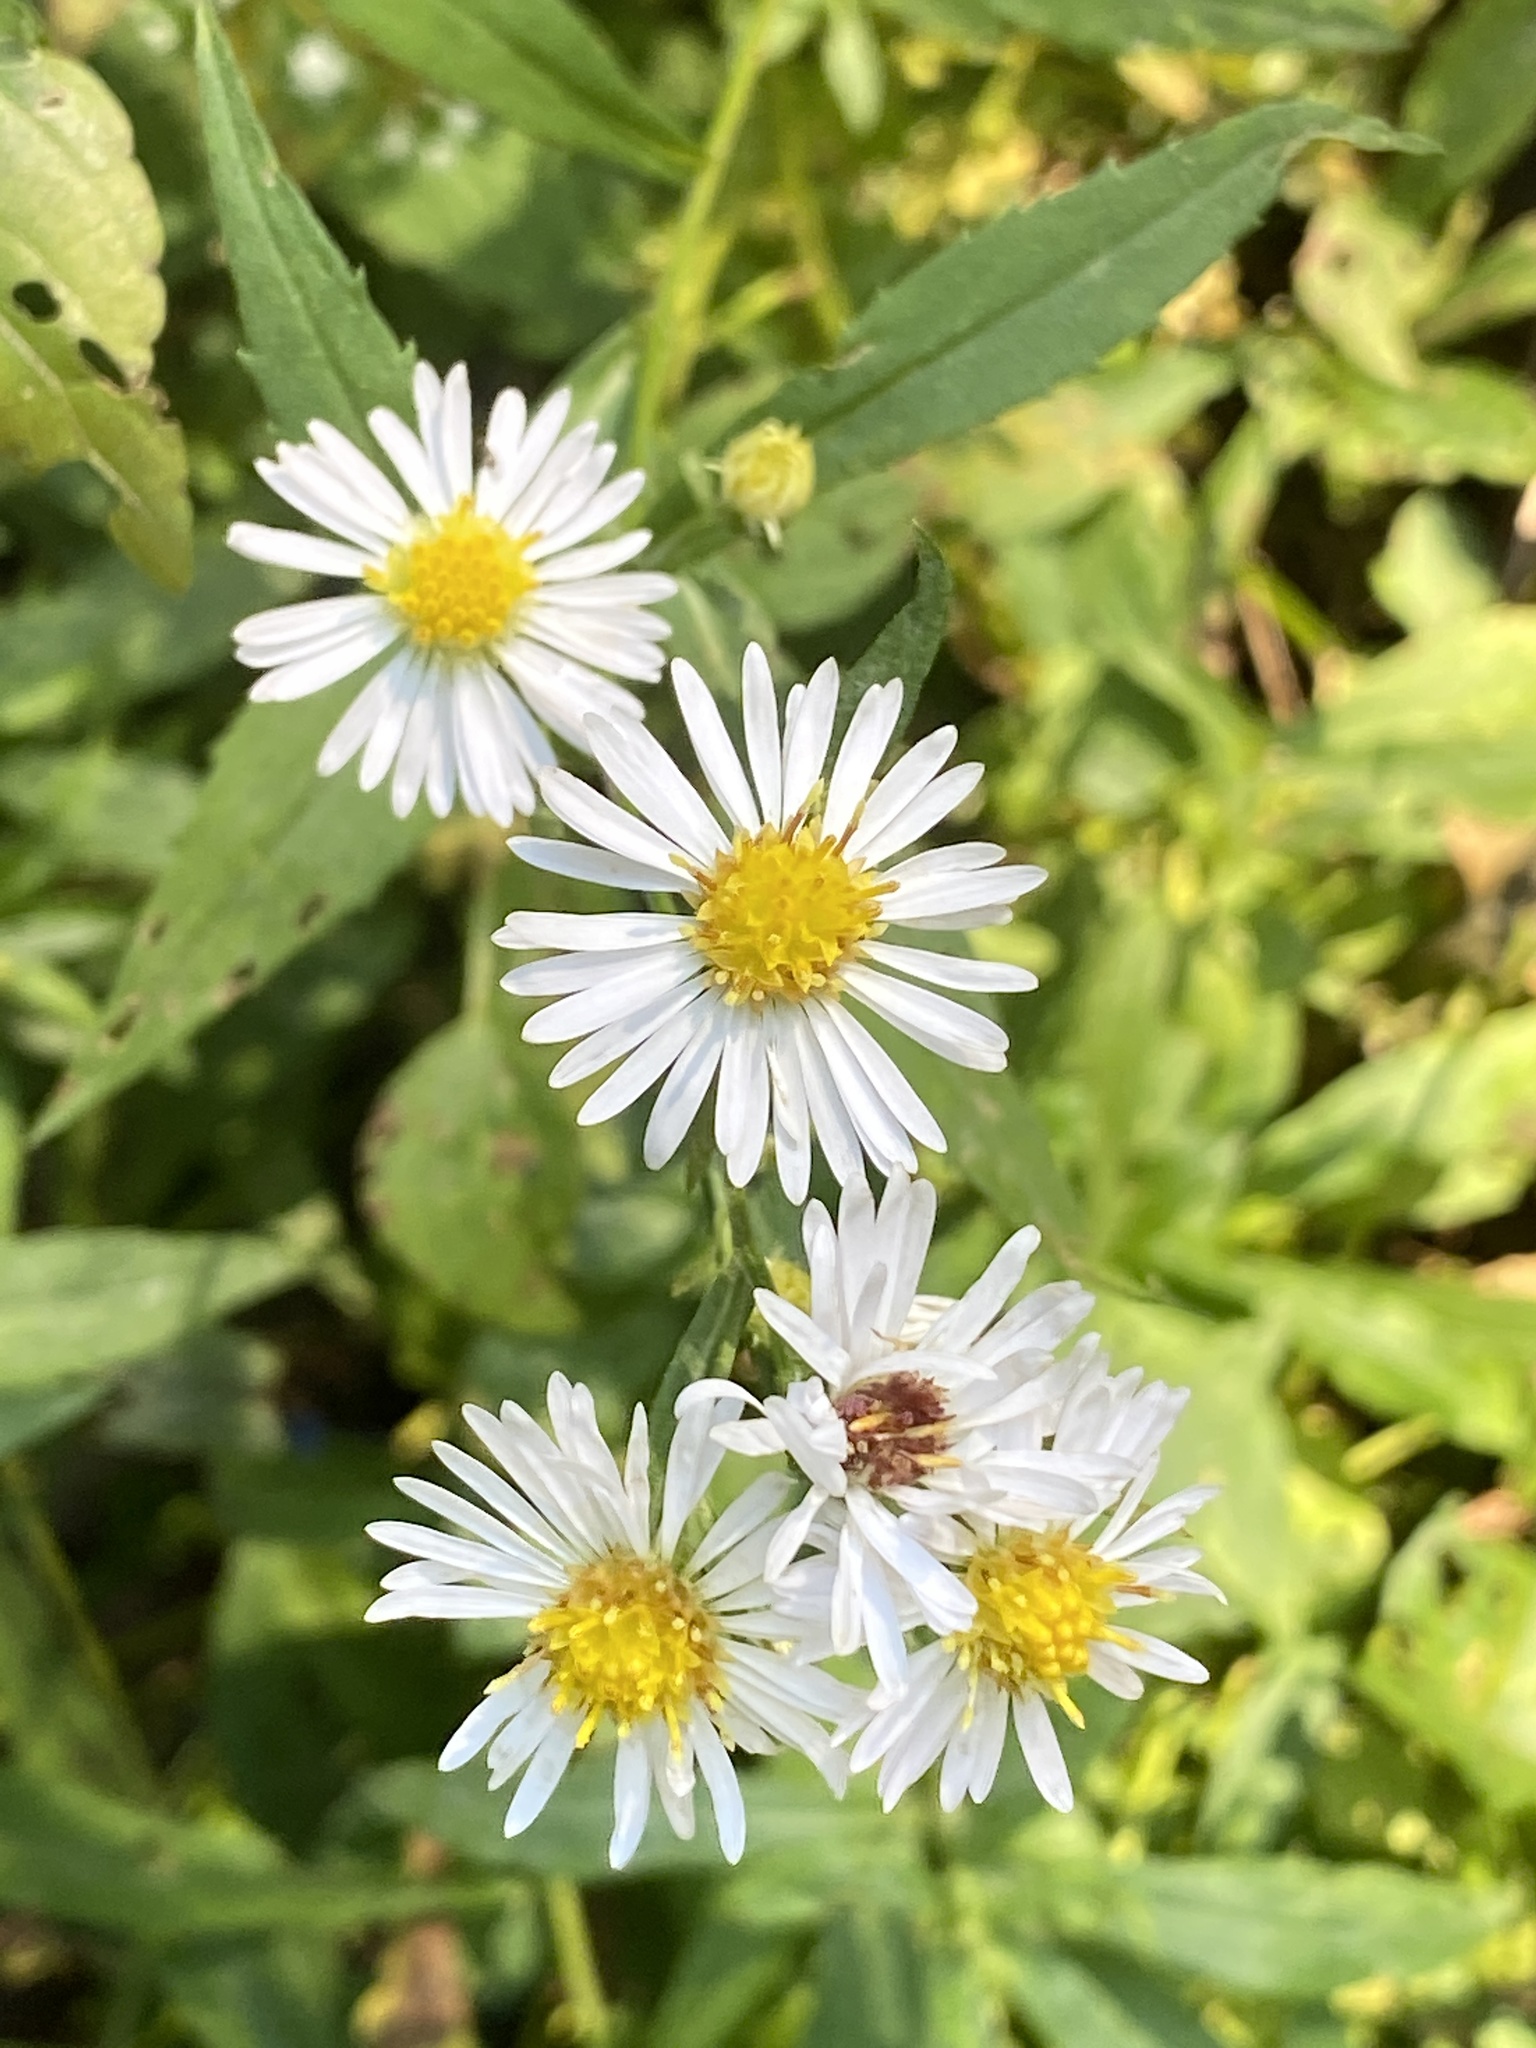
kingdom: Plantae
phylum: Tracheophyta
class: Magnoliopsida
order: Asterales
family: Asteraceae
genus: Symphyotrichum
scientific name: Symphyotrichum lanceolatum
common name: Panicled aster
